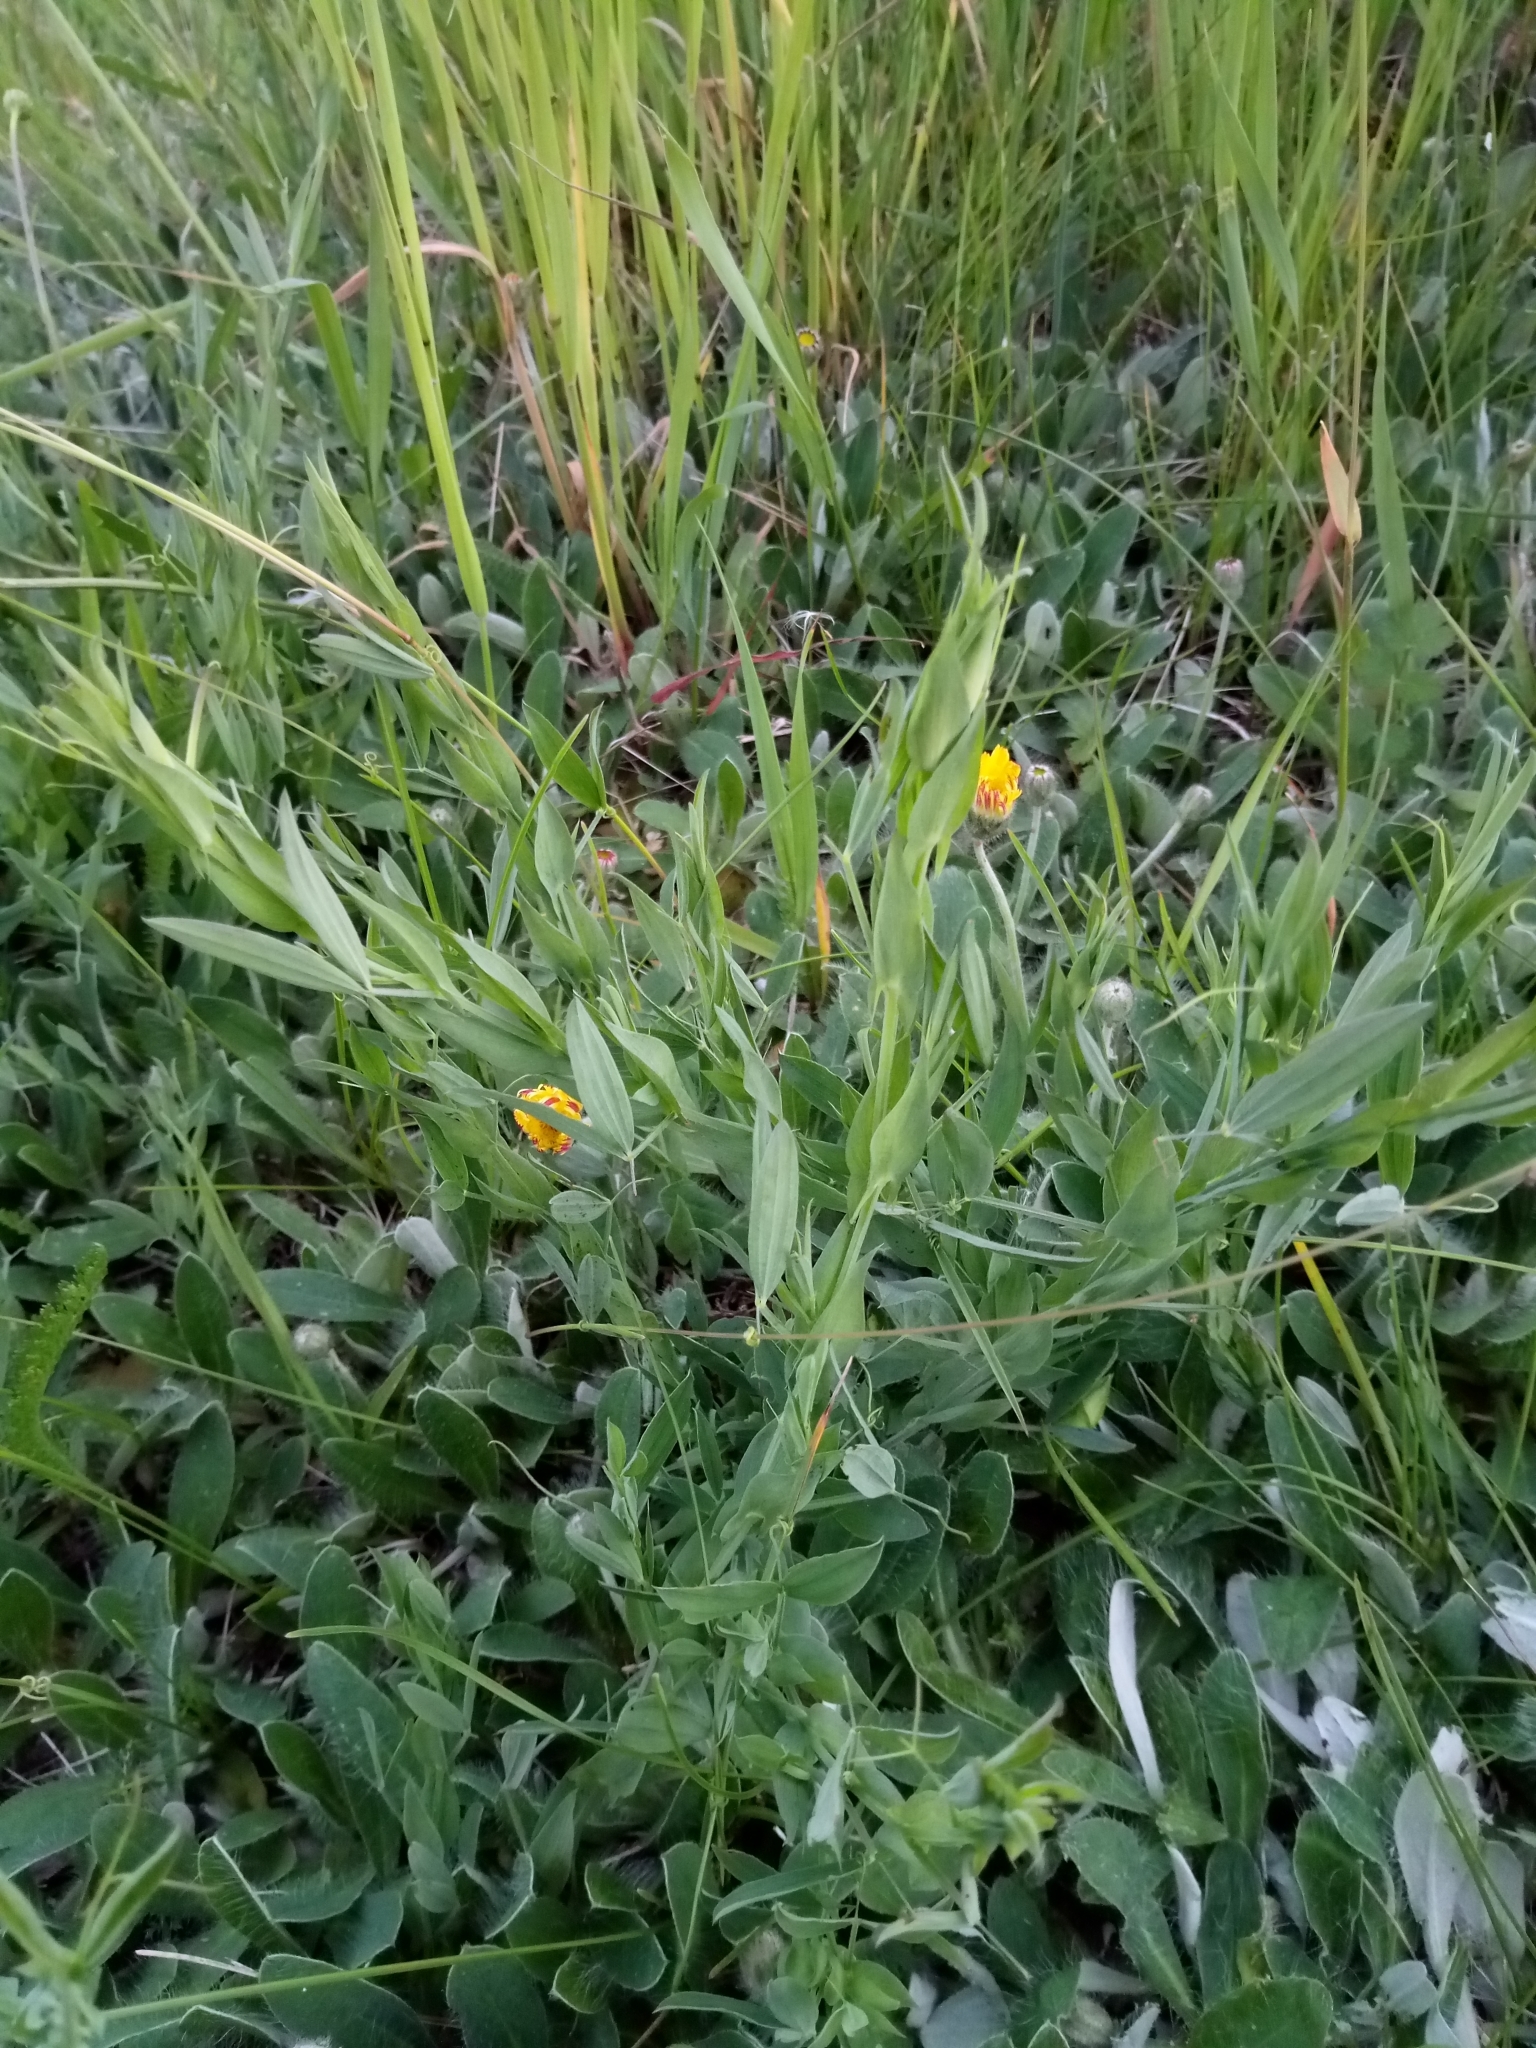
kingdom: Plantae
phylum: Tracheophyta
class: Magnoliopsida
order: Fabales
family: Fabaceae
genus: Lathyrus
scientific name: Lathyrus pratensis
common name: Meadow vetchling
